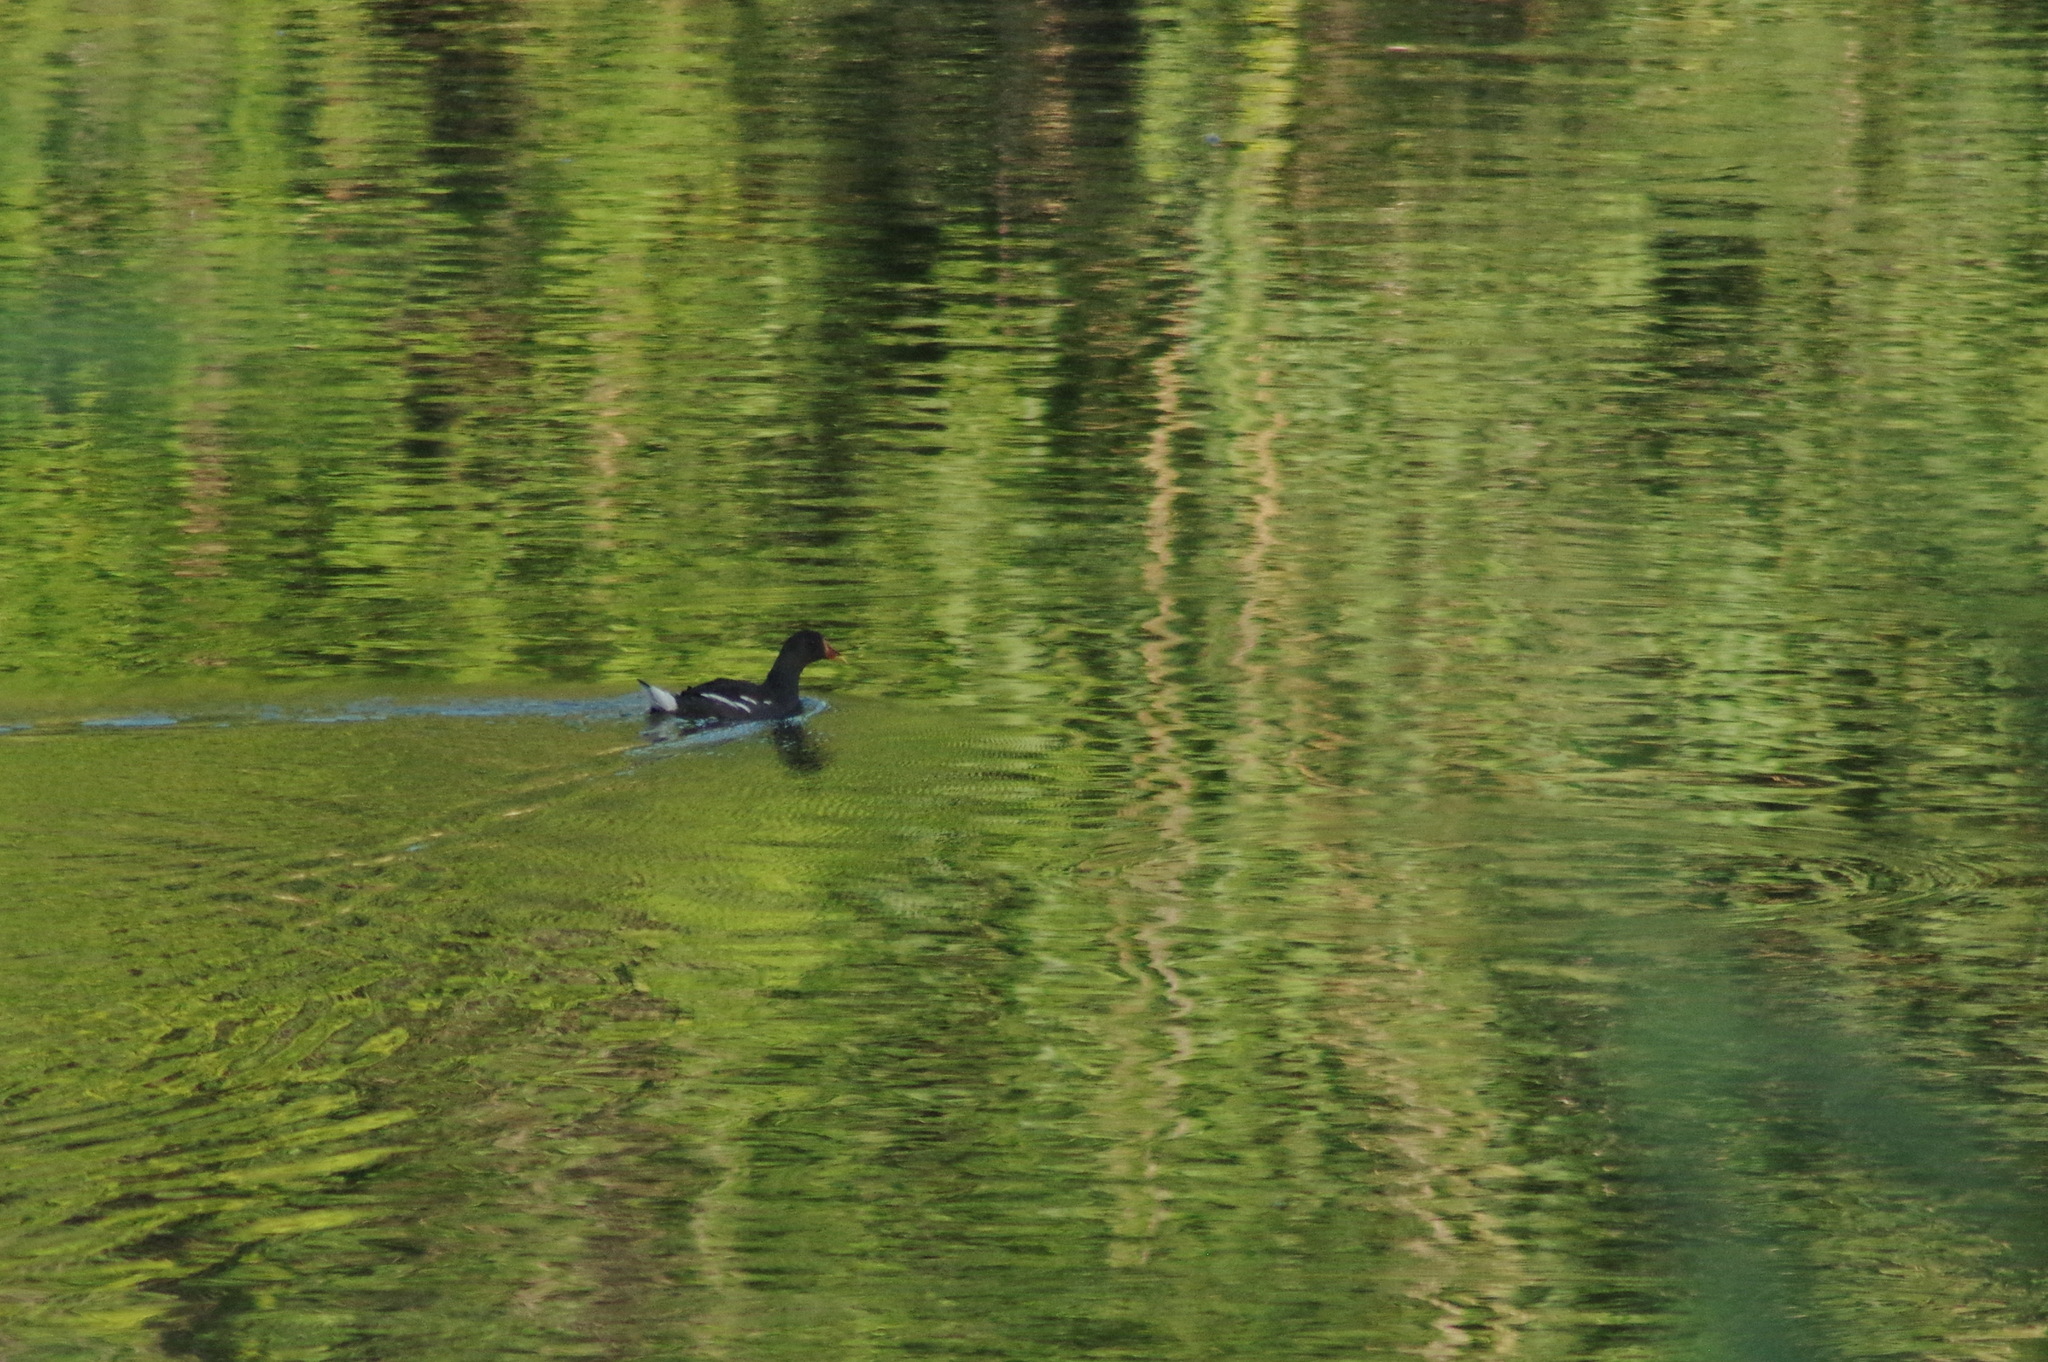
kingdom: Animalia
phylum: Chordata
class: Aves
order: Gruiformes
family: Rallidae
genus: Gallinula
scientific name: Gallinula chloropus
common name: Common moorhen
